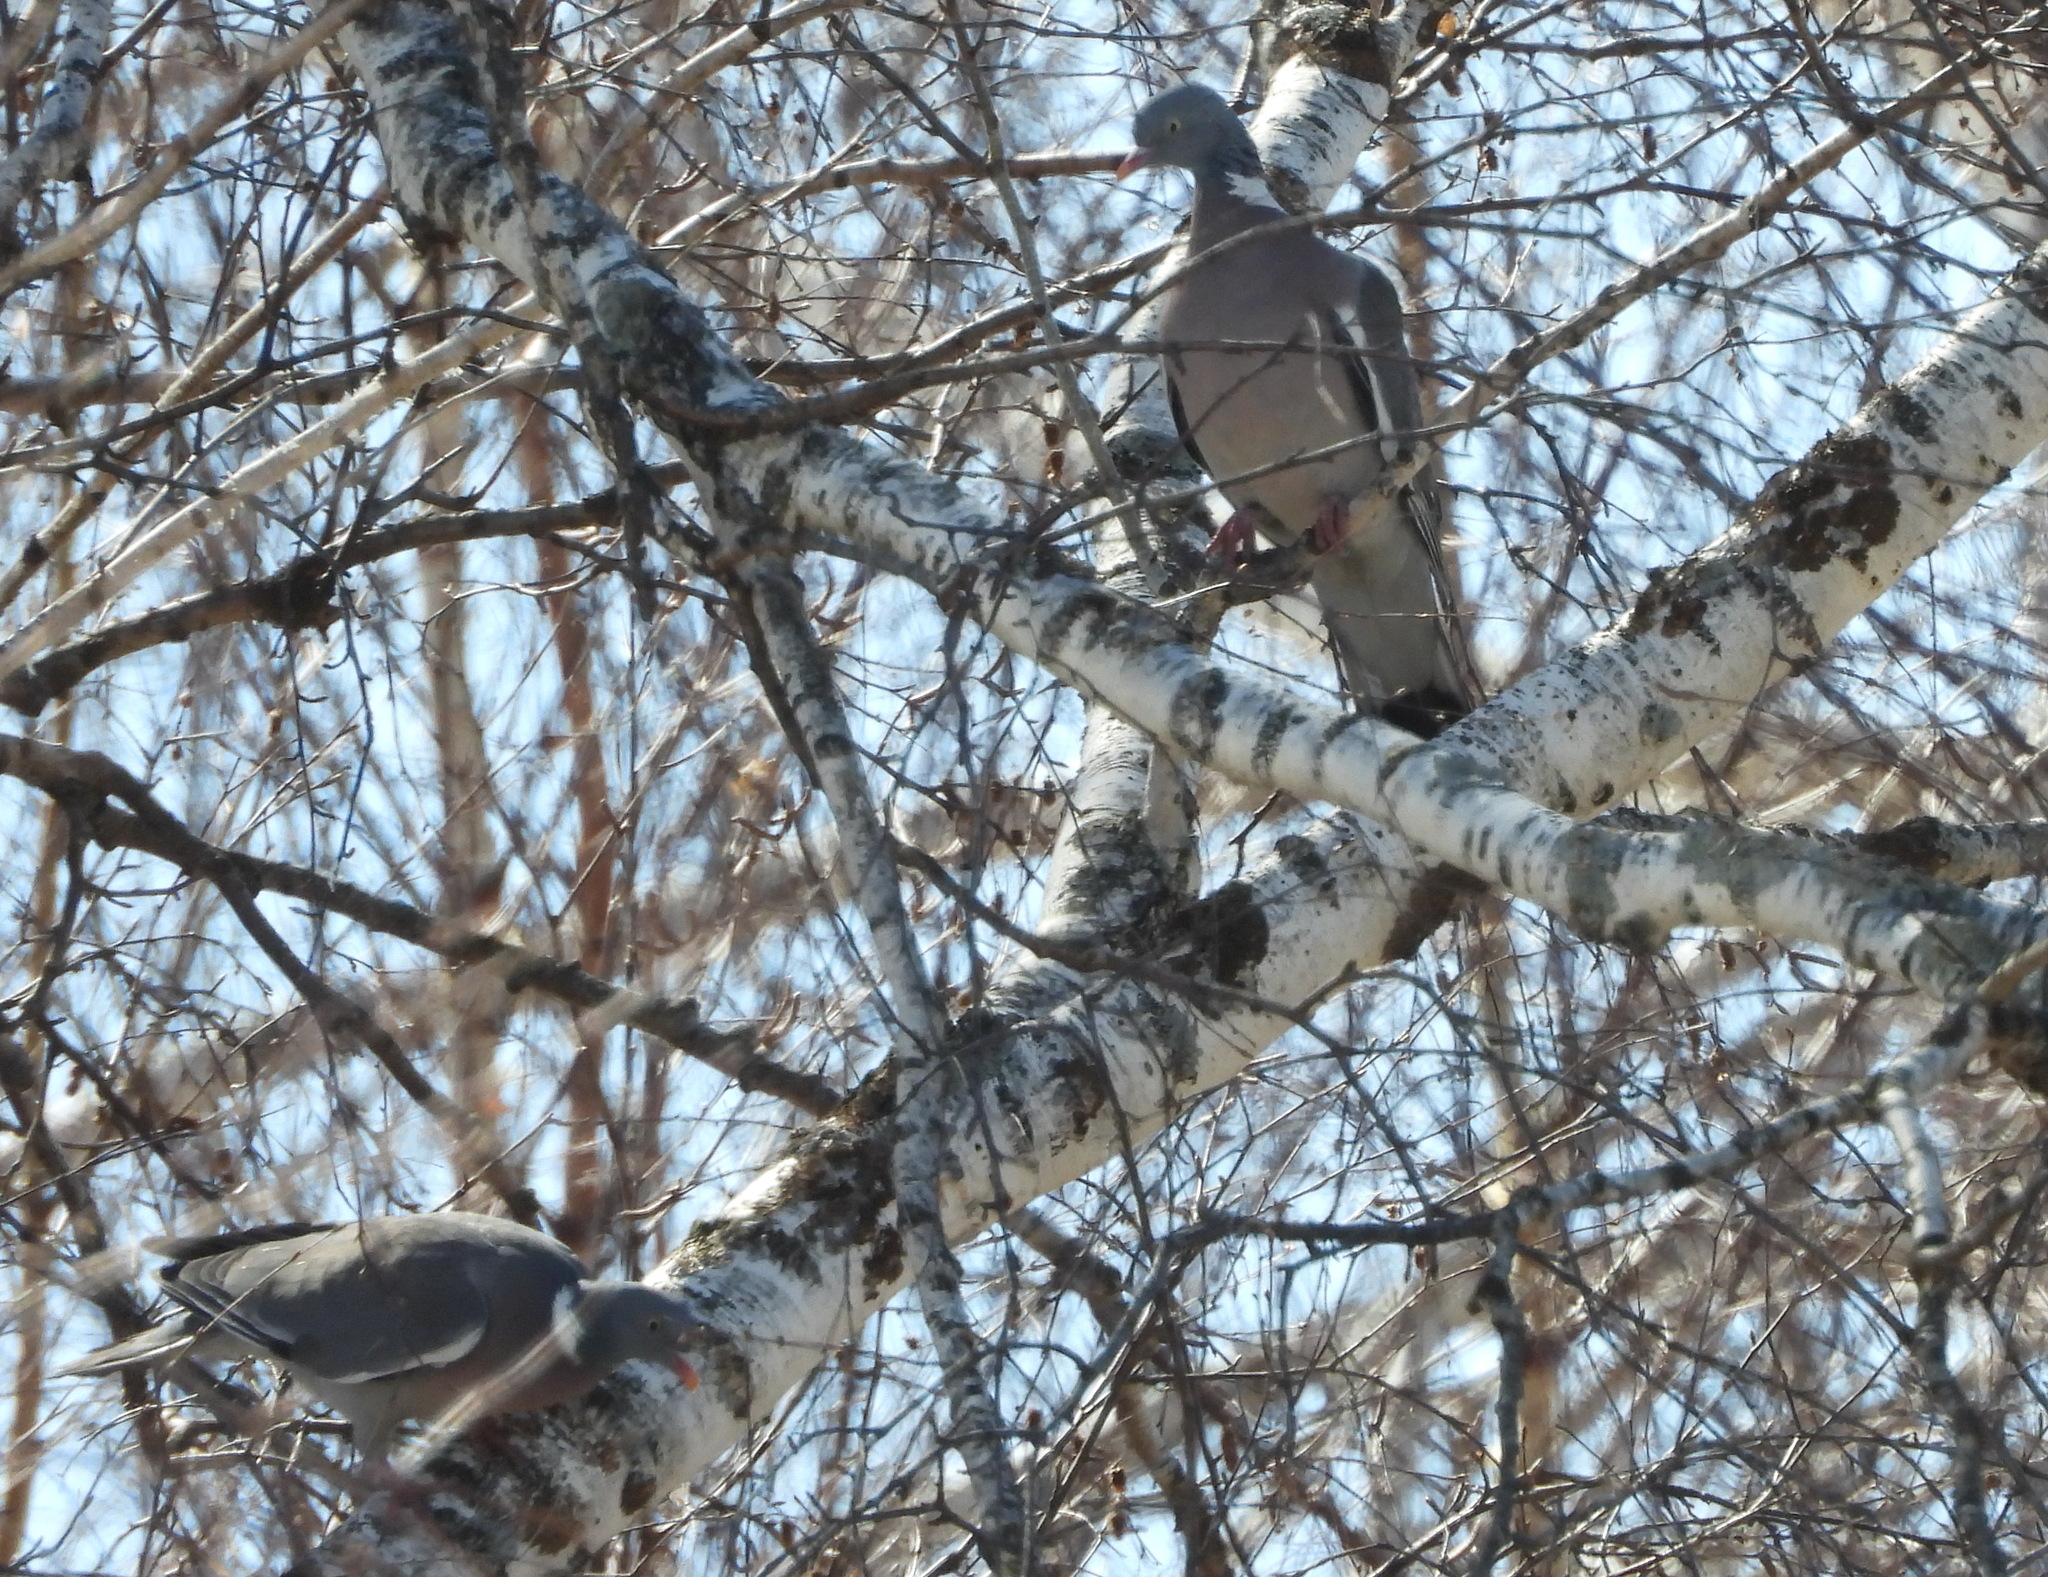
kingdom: Animalia
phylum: Chordata
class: Aves
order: Columbiformes
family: Columbidae
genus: Columba
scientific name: Columba palumbus
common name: Common wood pigeon
